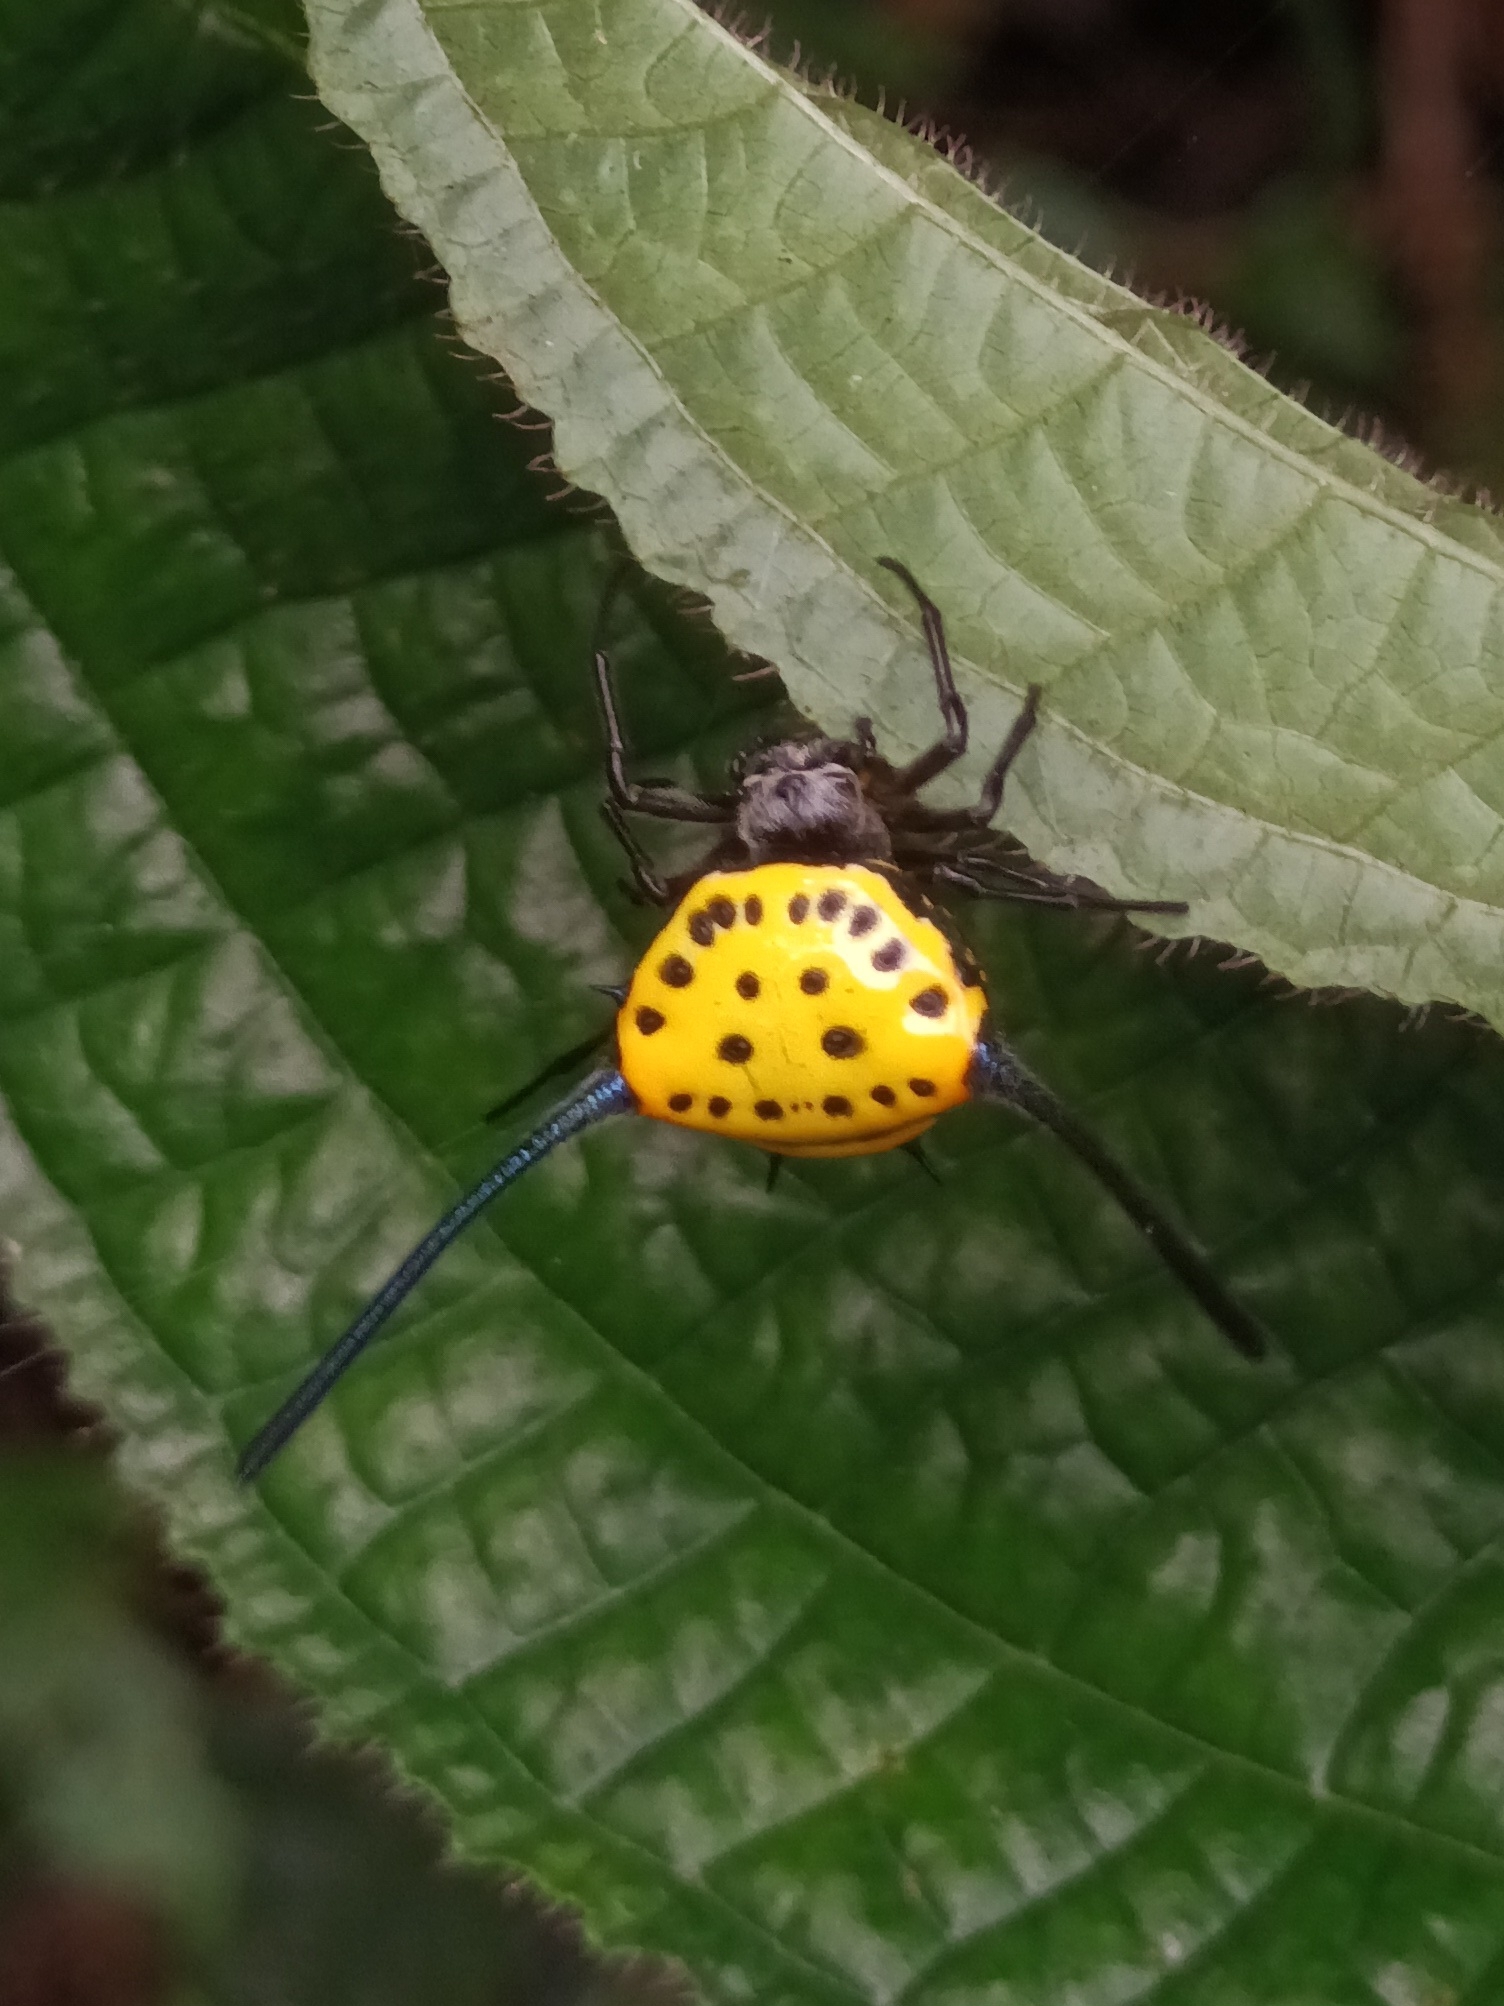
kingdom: Animalia
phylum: Arthropoda
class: Arachnida
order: Araneae
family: Araneidae
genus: Gasteracantha
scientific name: Gasteracantha dalyi
